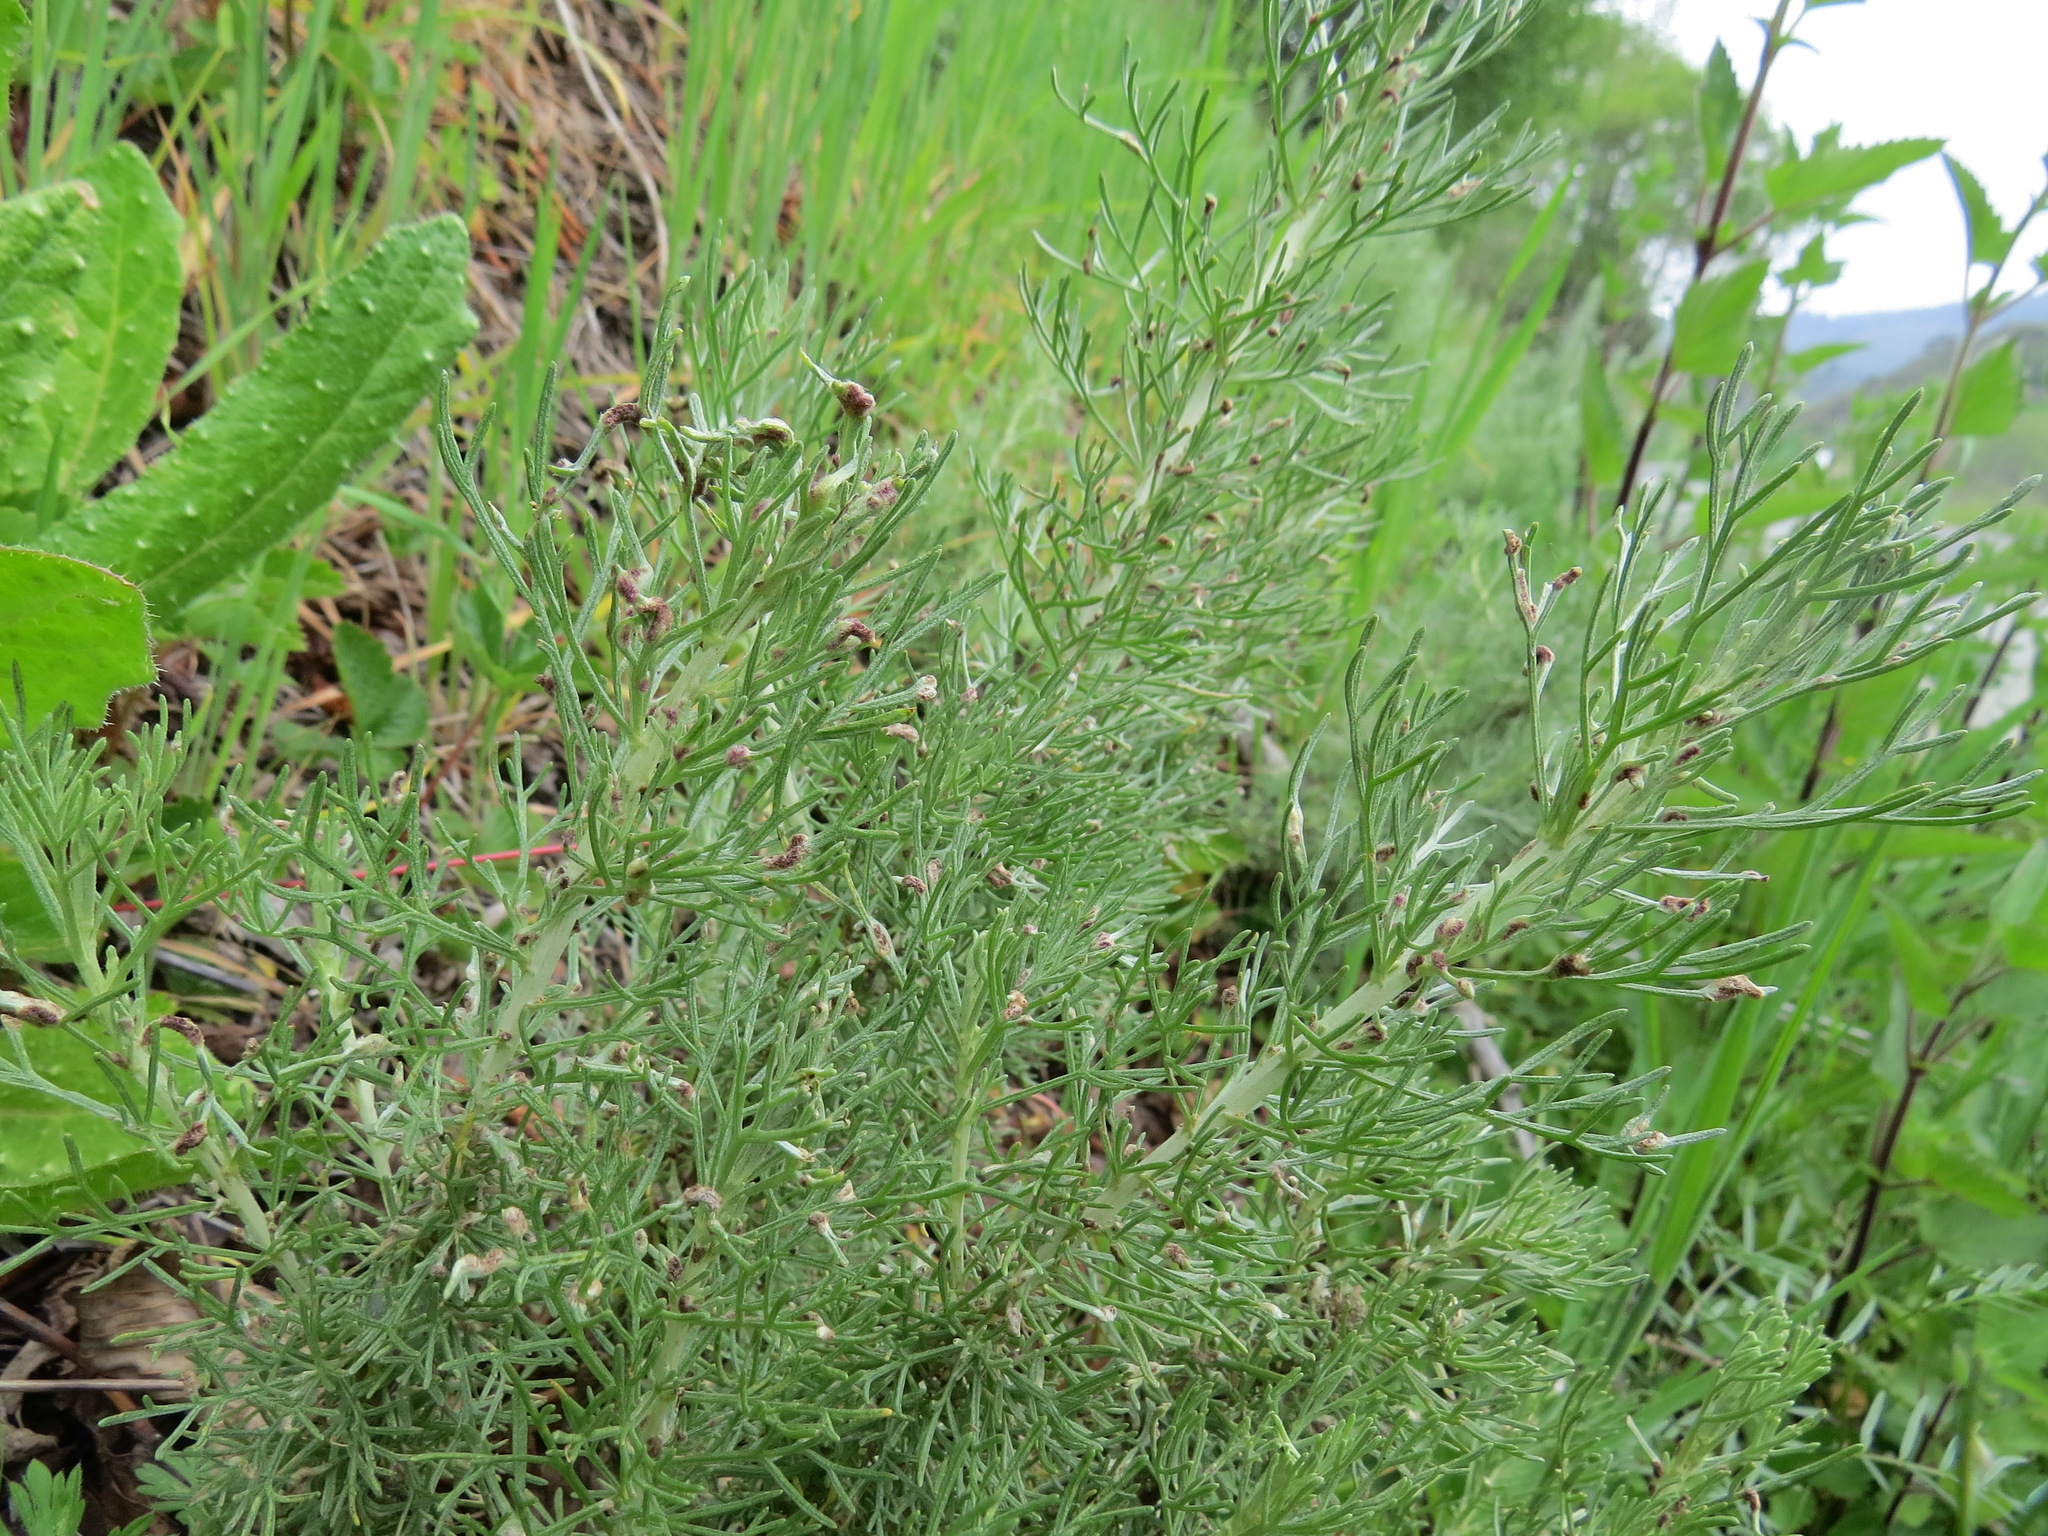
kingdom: Animalia
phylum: Arthropoda
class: Arachnida
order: Trombidiformes
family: Eriophyidae
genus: Aceria
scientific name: Aceria
